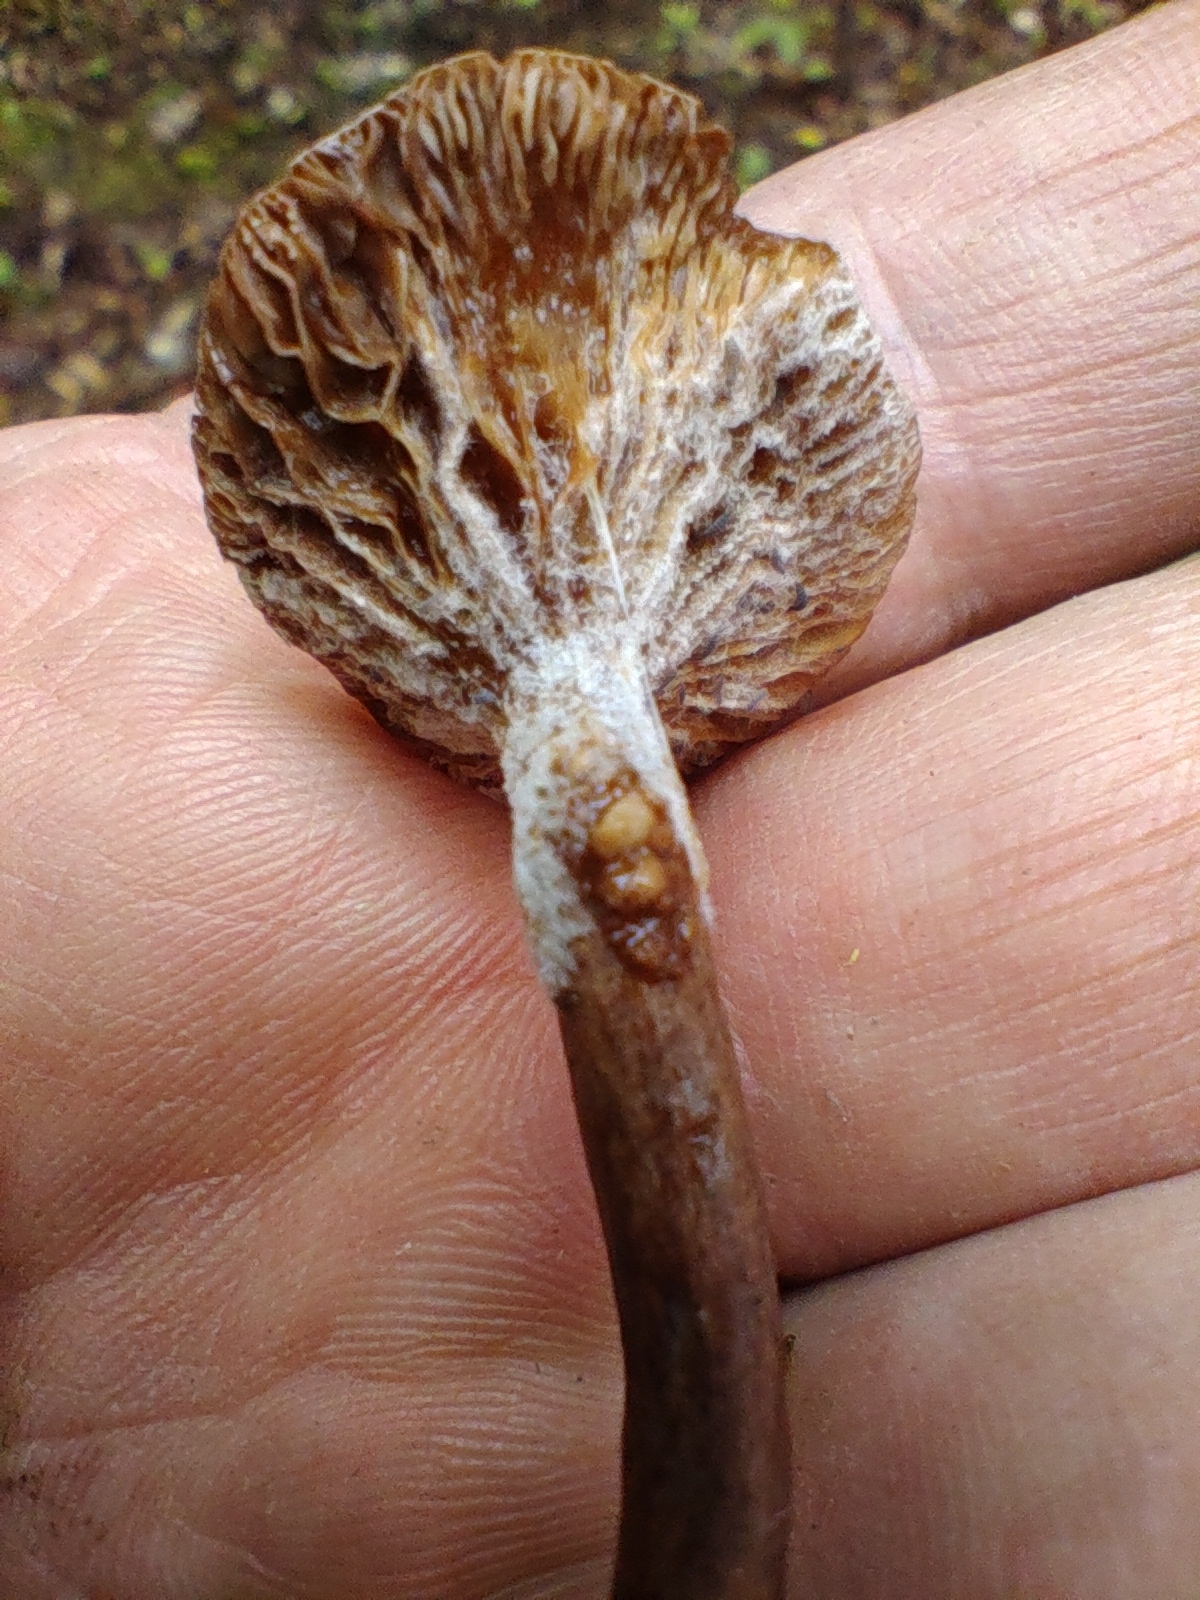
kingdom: Fungi
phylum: Ascomycota
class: Sordariomycetes
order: Hypocreales
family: Hypocreaceae
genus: Hypomyces
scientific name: Hypomyces armeniacus
